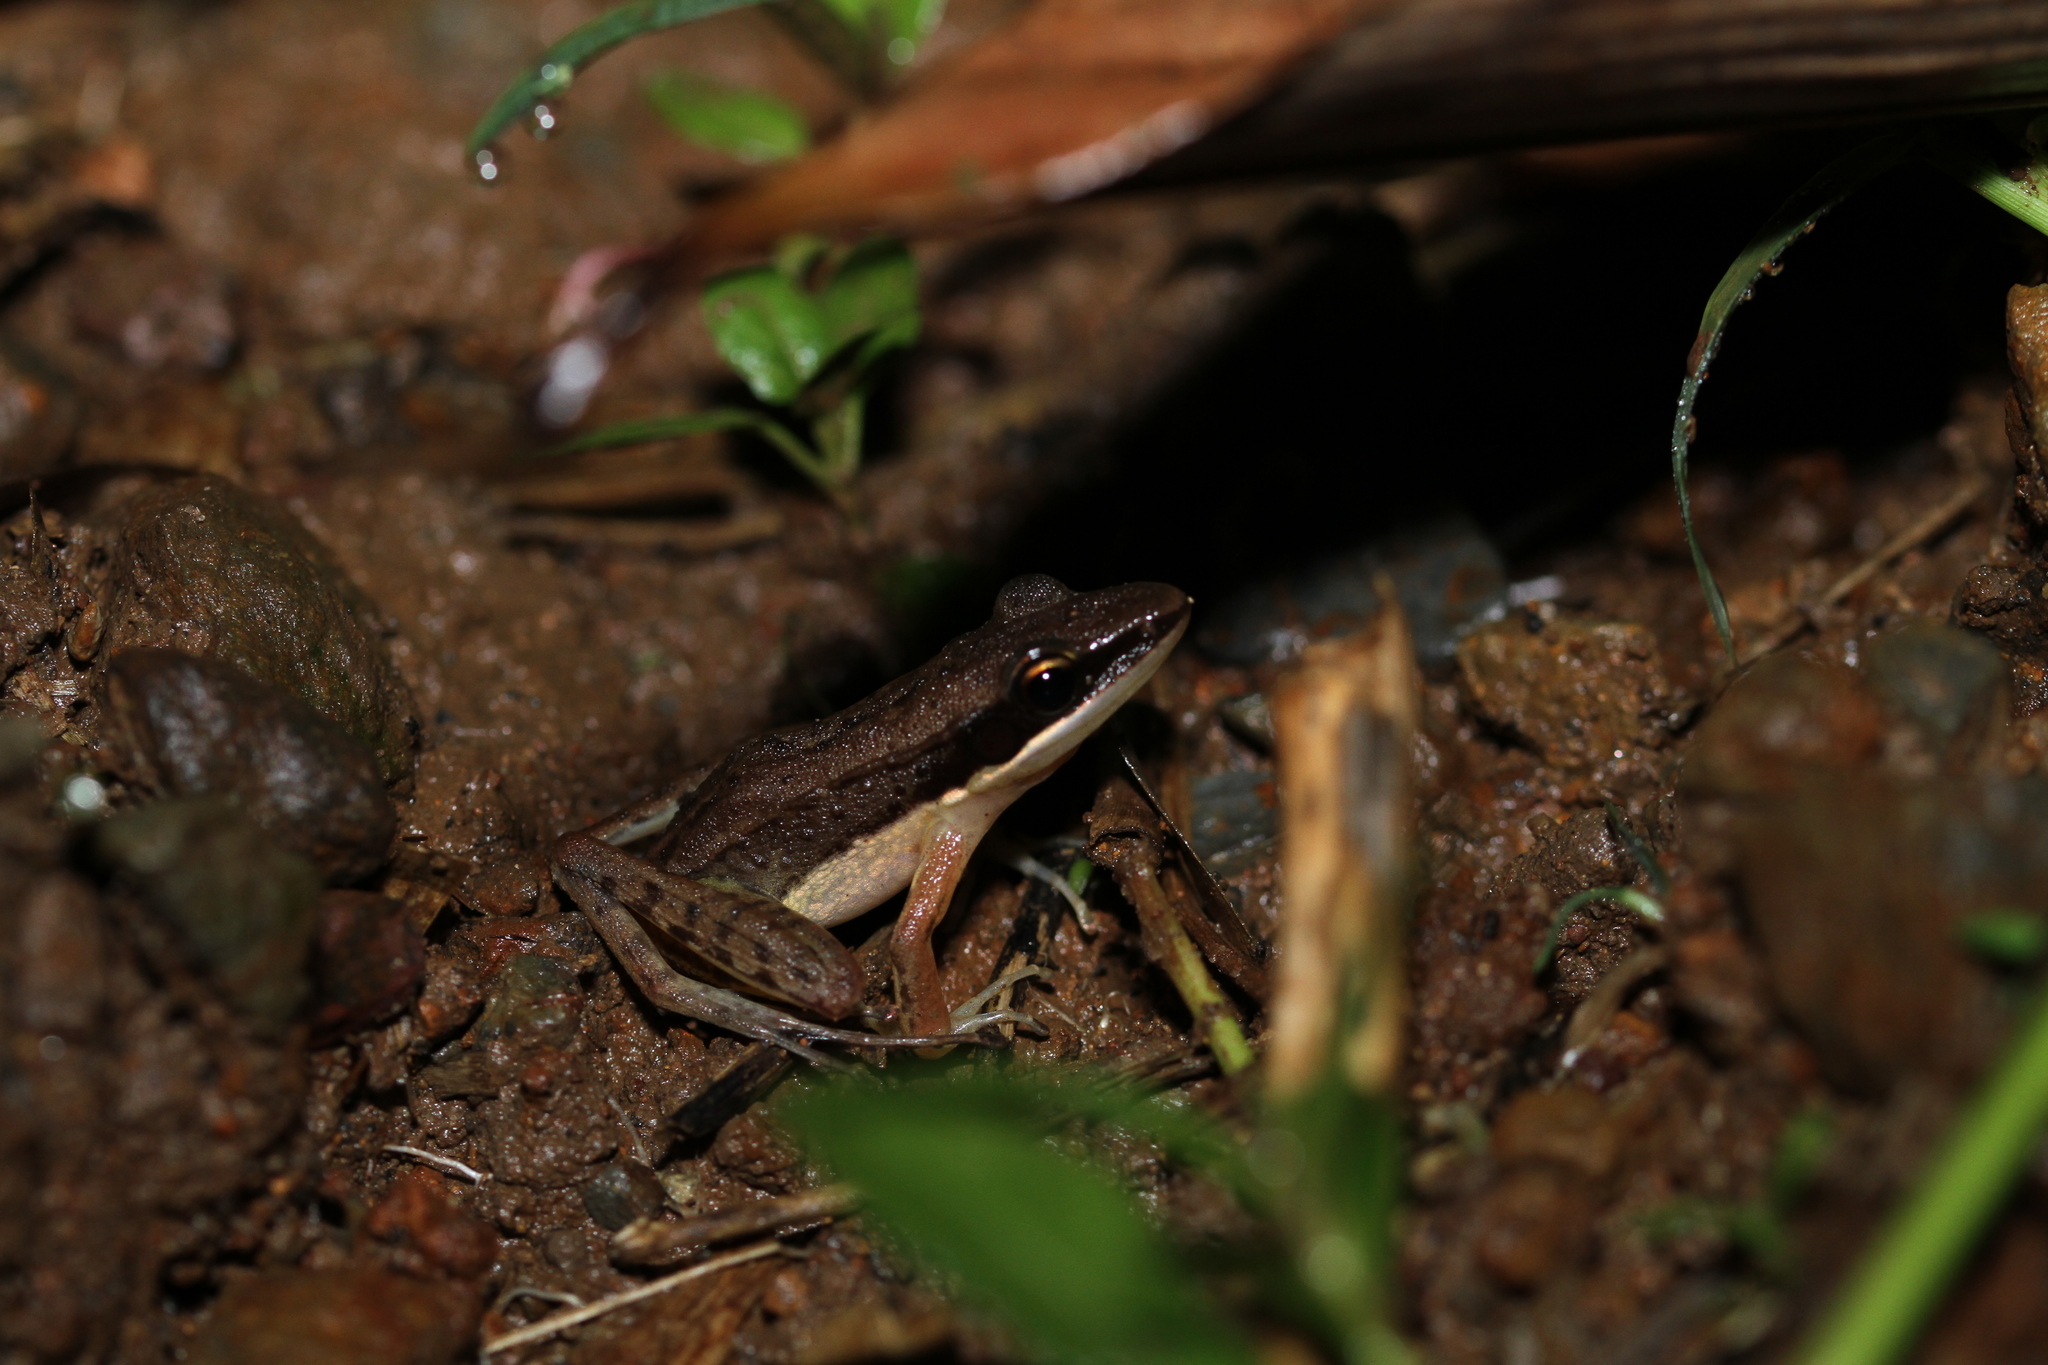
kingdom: Animalia
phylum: Chordata
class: Amphibia
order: Anura
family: Ranidae
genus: Bijurana
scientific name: Bijurana nicobariensis
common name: Cricket frog
